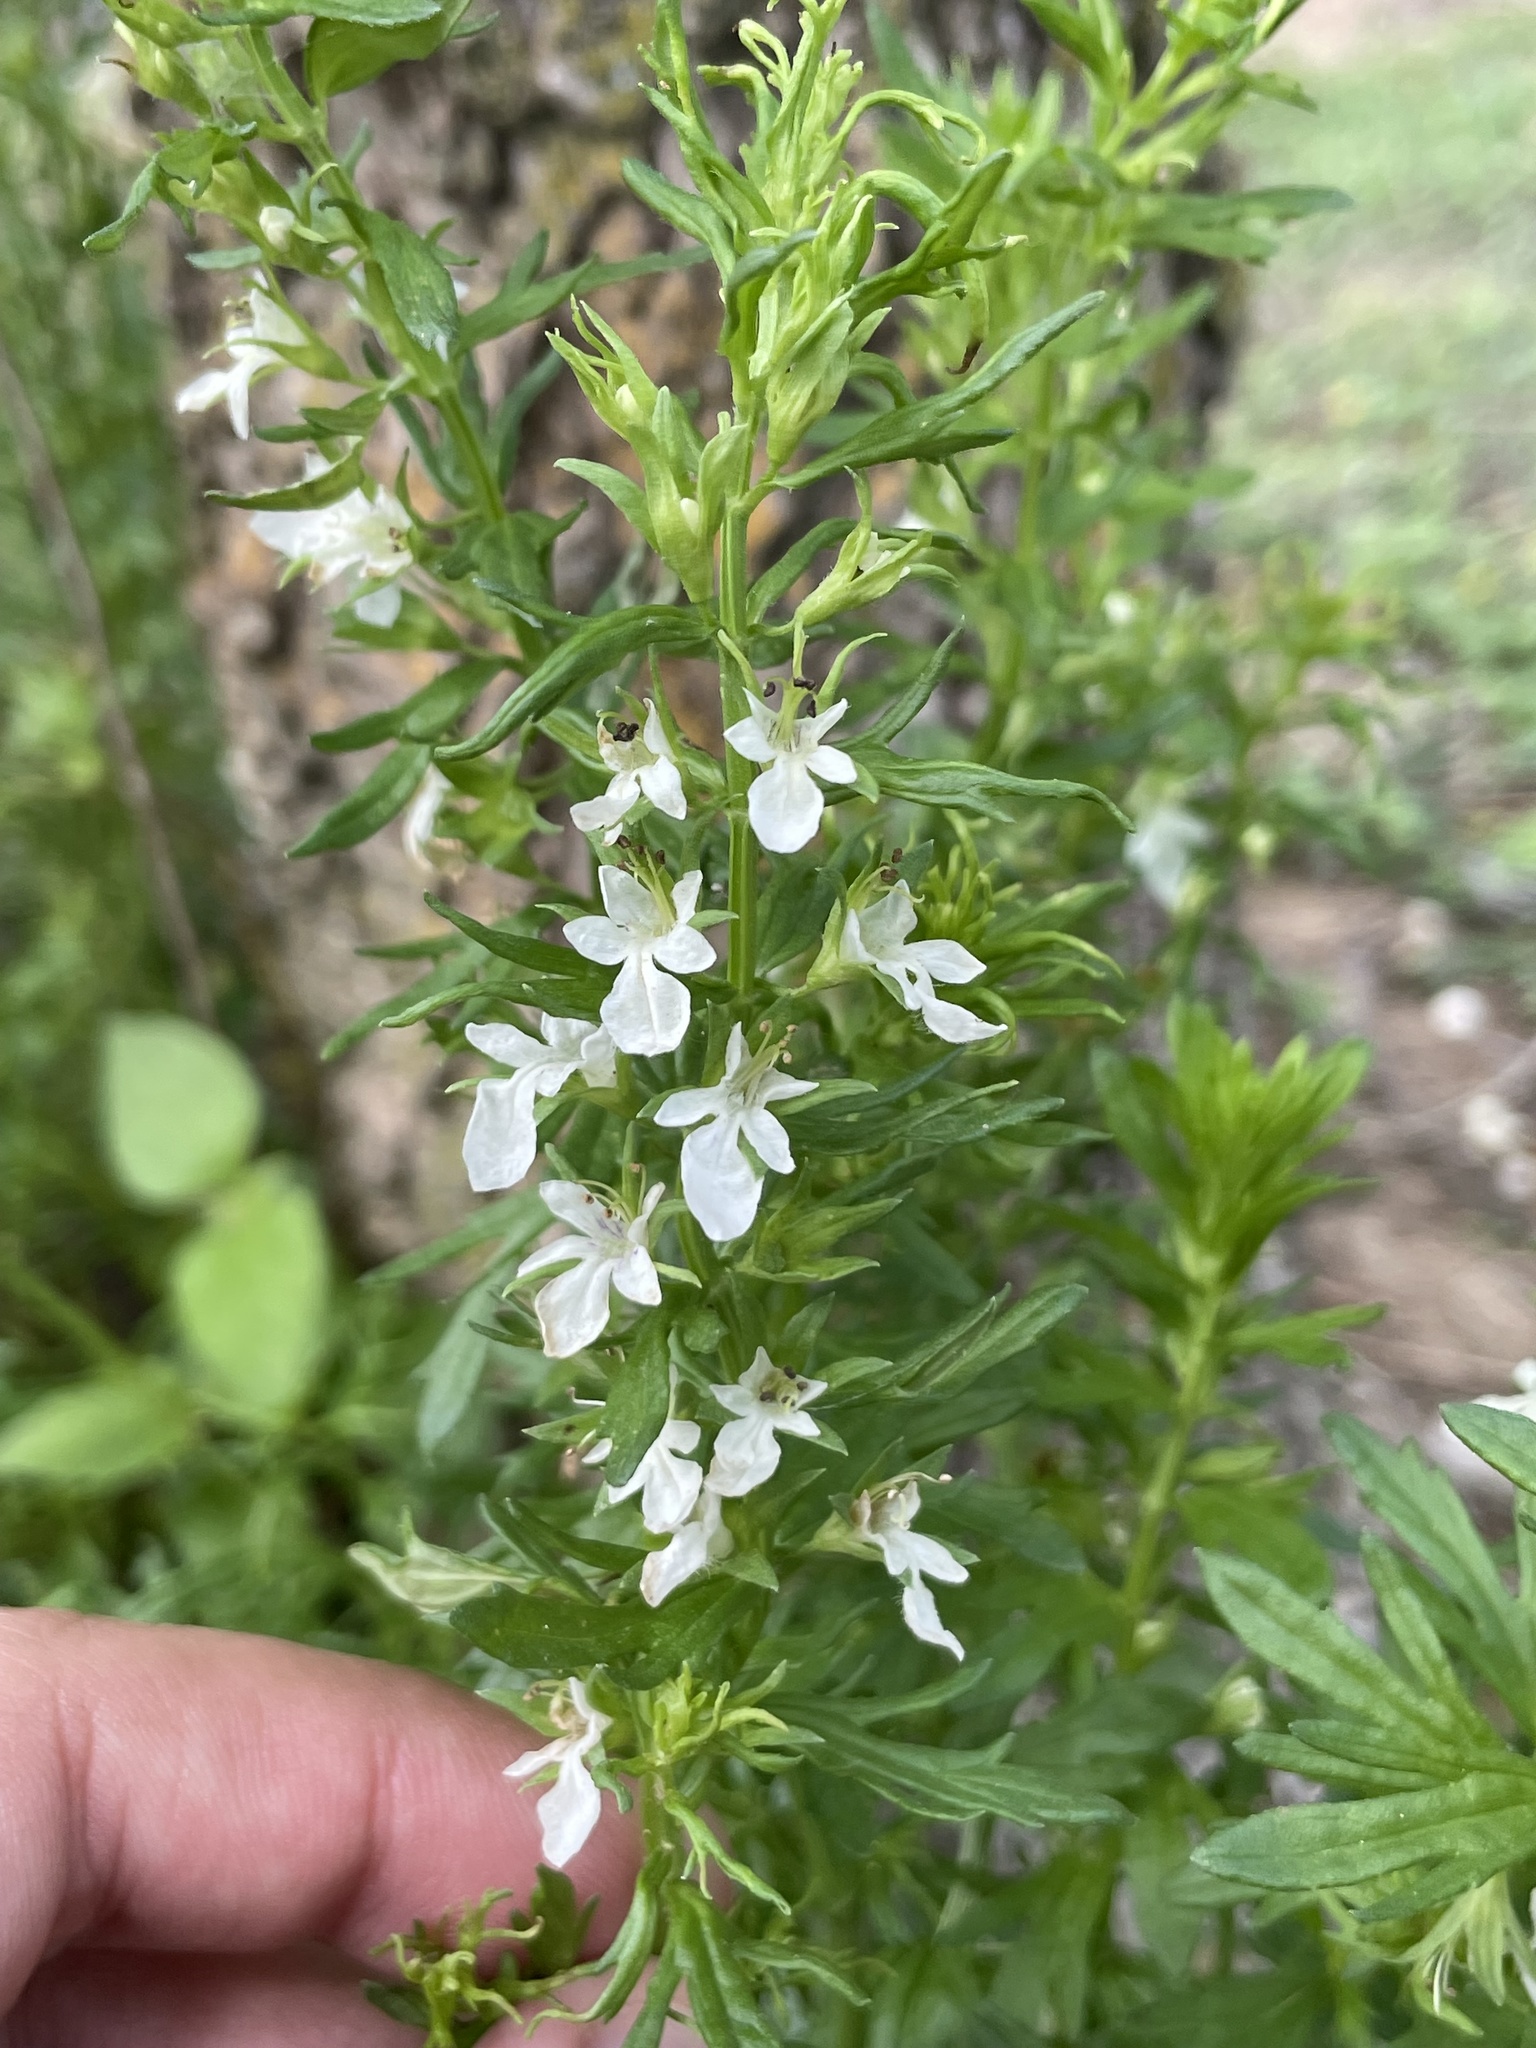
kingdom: Plantae
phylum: Tracheophyta
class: Magnoliopsida
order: Lamiales
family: Lamiaceae
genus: Teucrium
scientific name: Teucrium cubense
